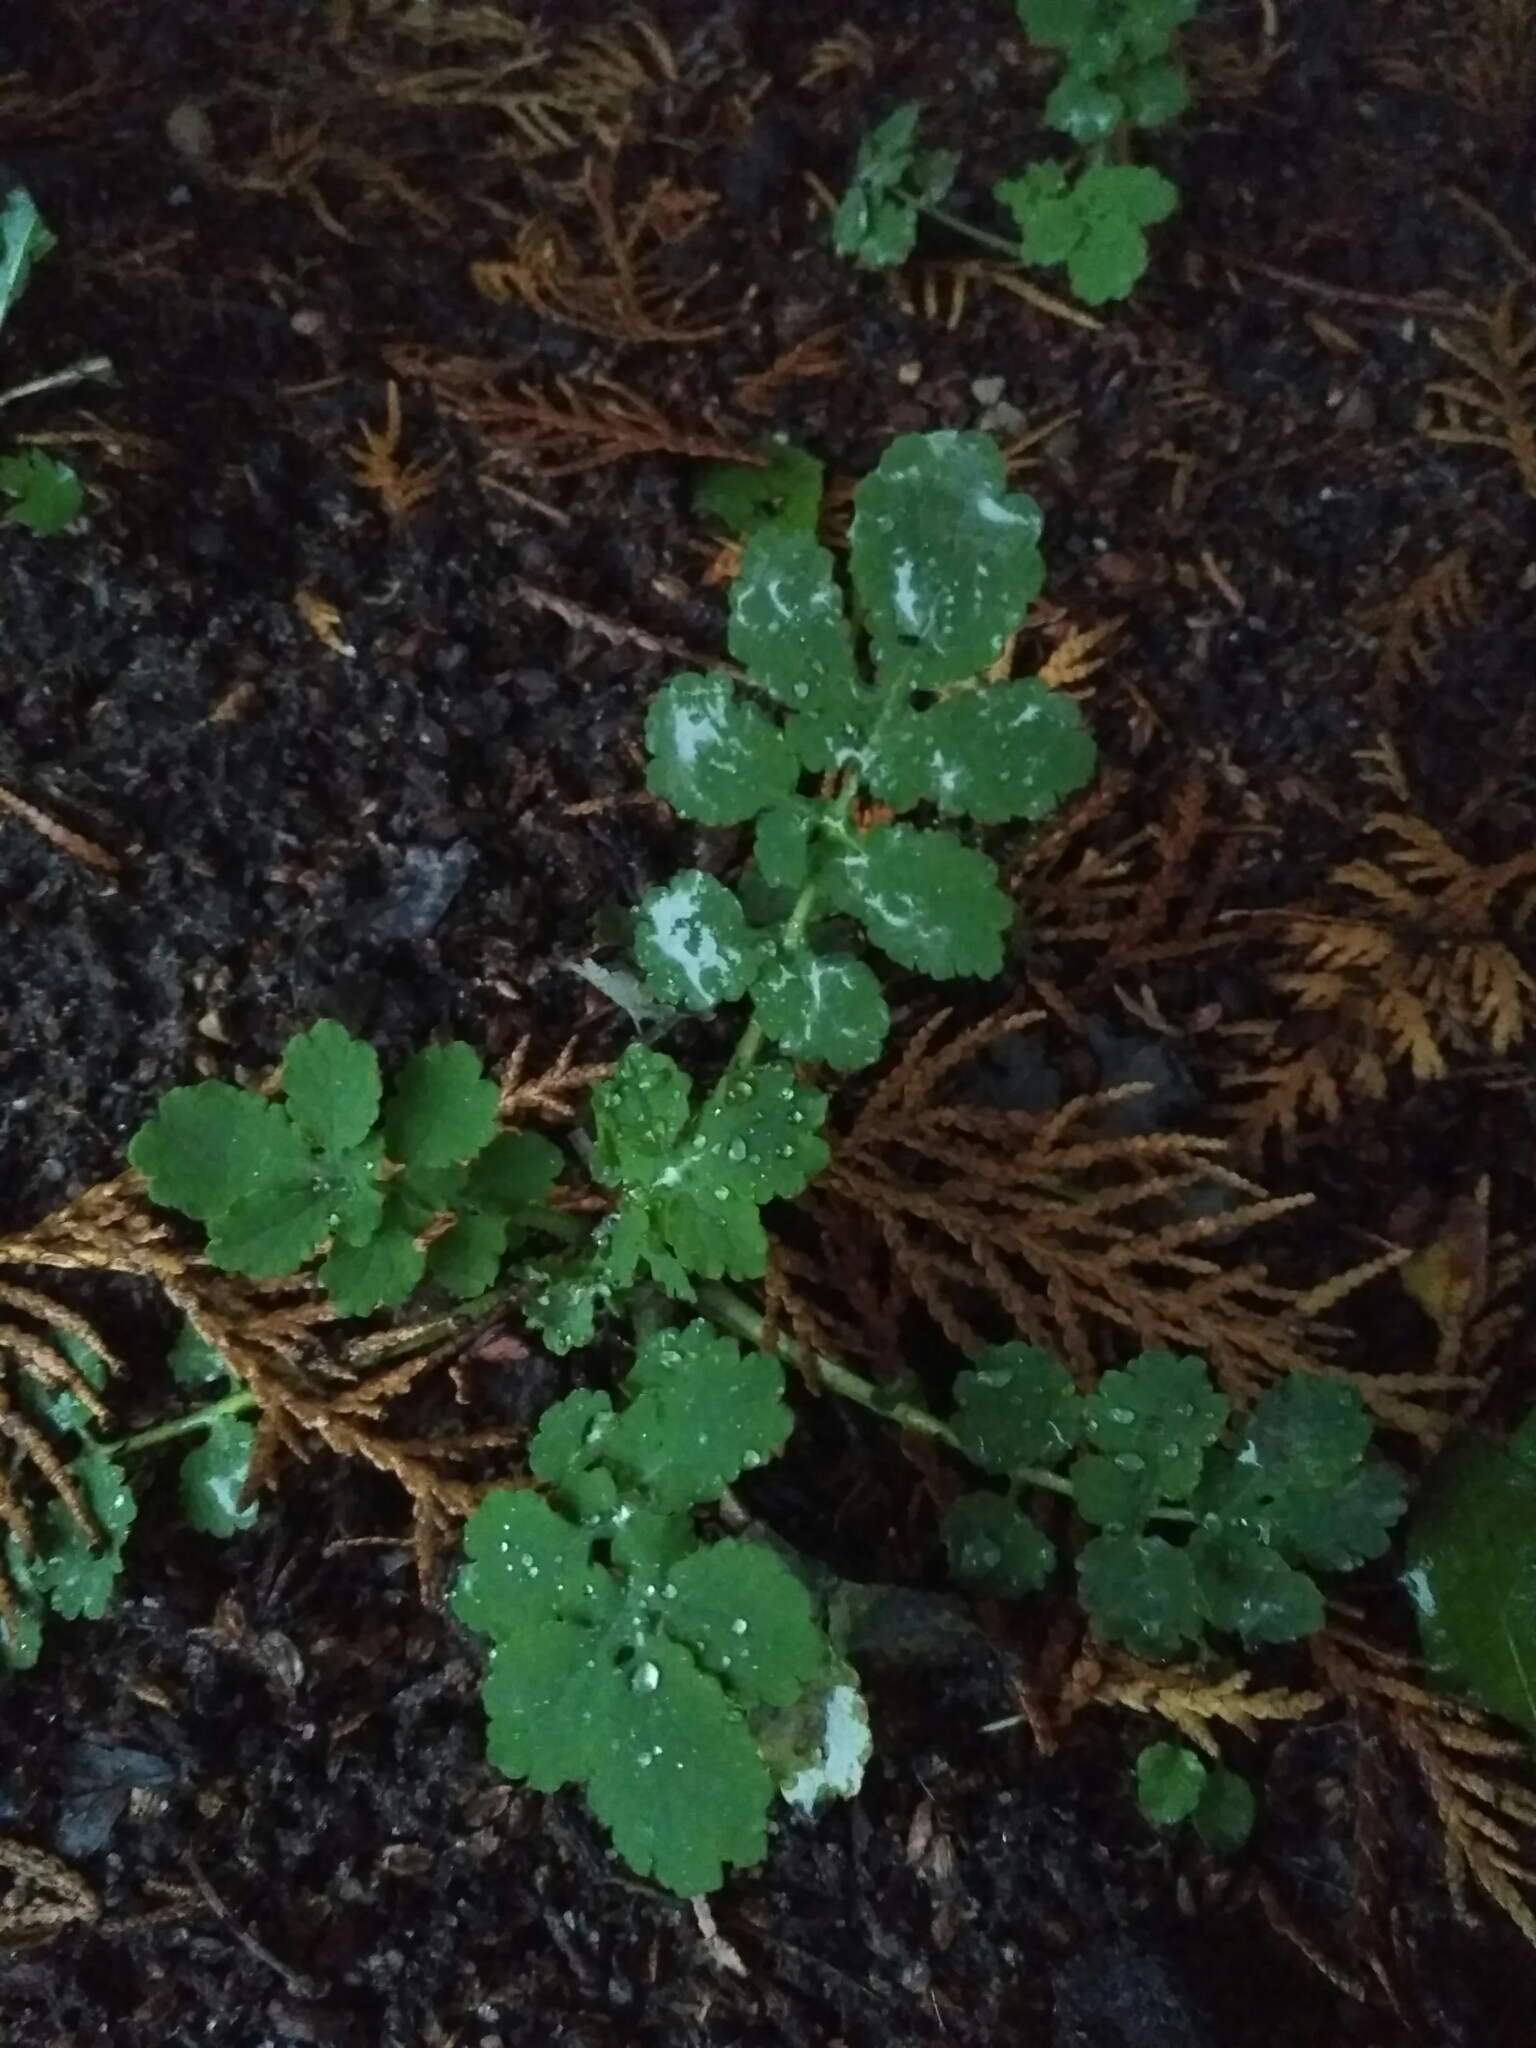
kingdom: Plantae
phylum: Tracheophyta
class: Magnoliopsida
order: Ranunculales
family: Papaveraceae
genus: Chelidonium
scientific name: Chelidonium majus
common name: Greater celandine
